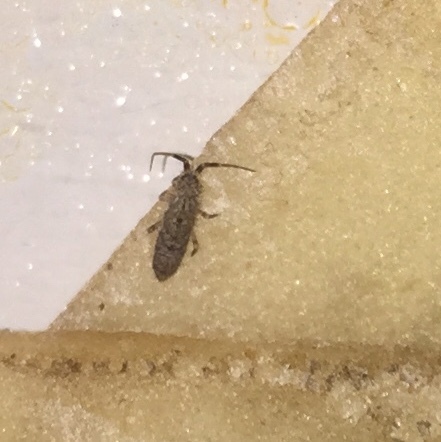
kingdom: Animalia
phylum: Arthropoda
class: Collembola
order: Entomobryomorpha
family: Orchesellidae
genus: Orchesella
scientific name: Orchesella villosa
